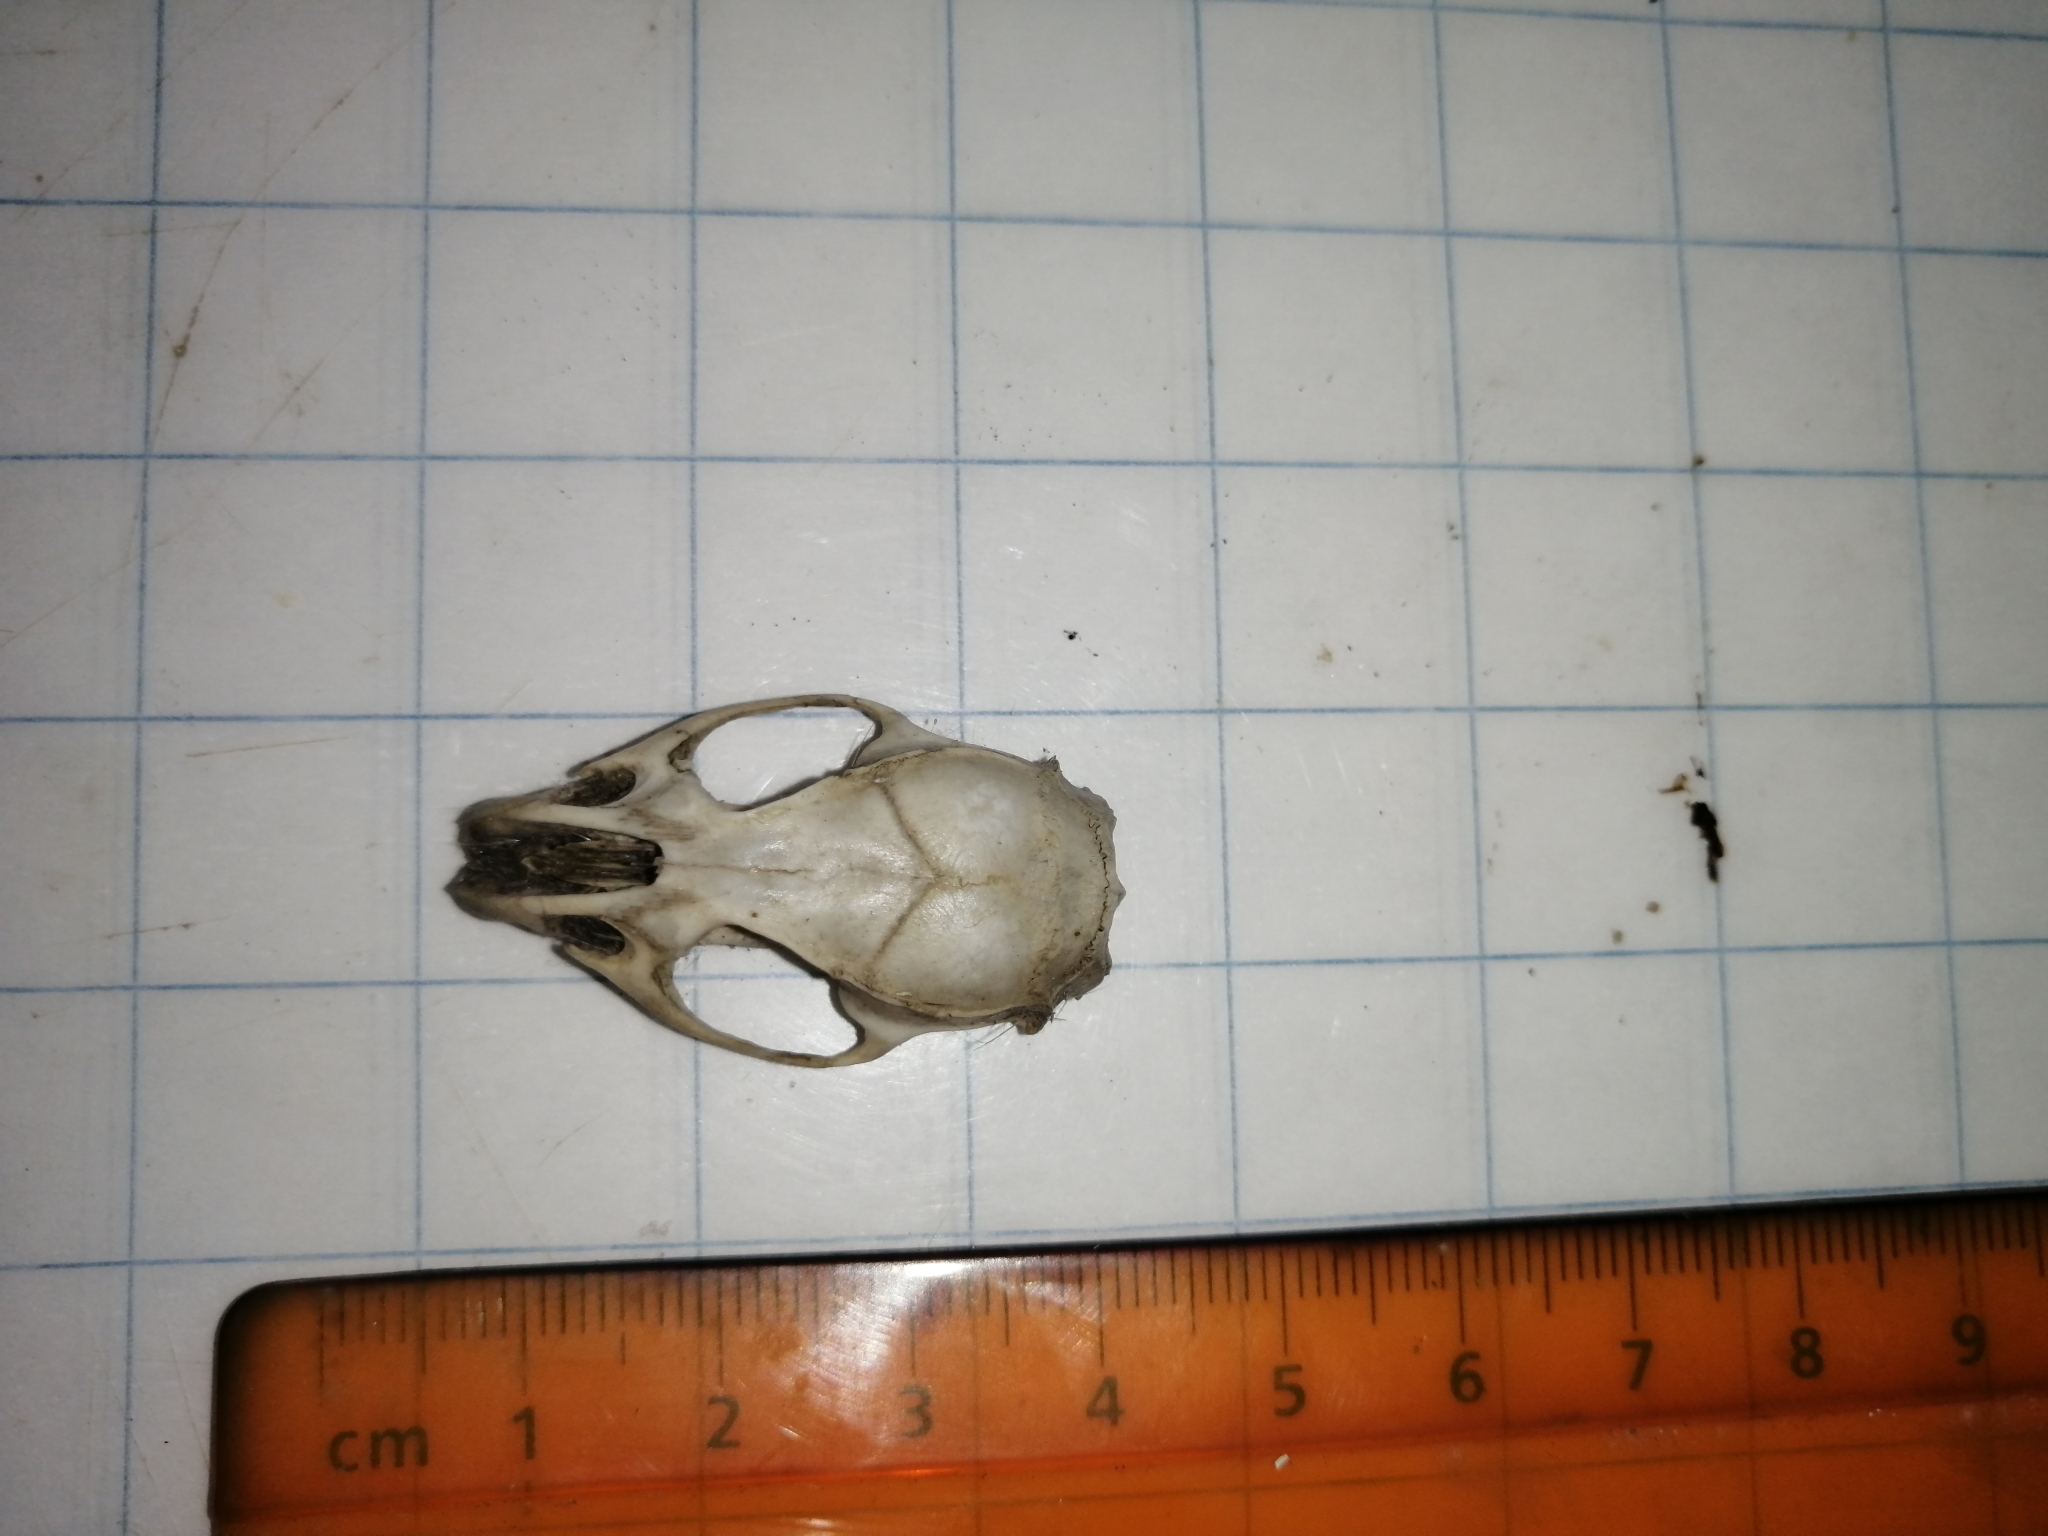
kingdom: Animalia
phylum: Chordata
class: Mammalia
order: Rodentia
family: Cricetidae
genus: Sigmodon
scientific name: Sigmodon toltecus
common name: Toltec cotton rat
